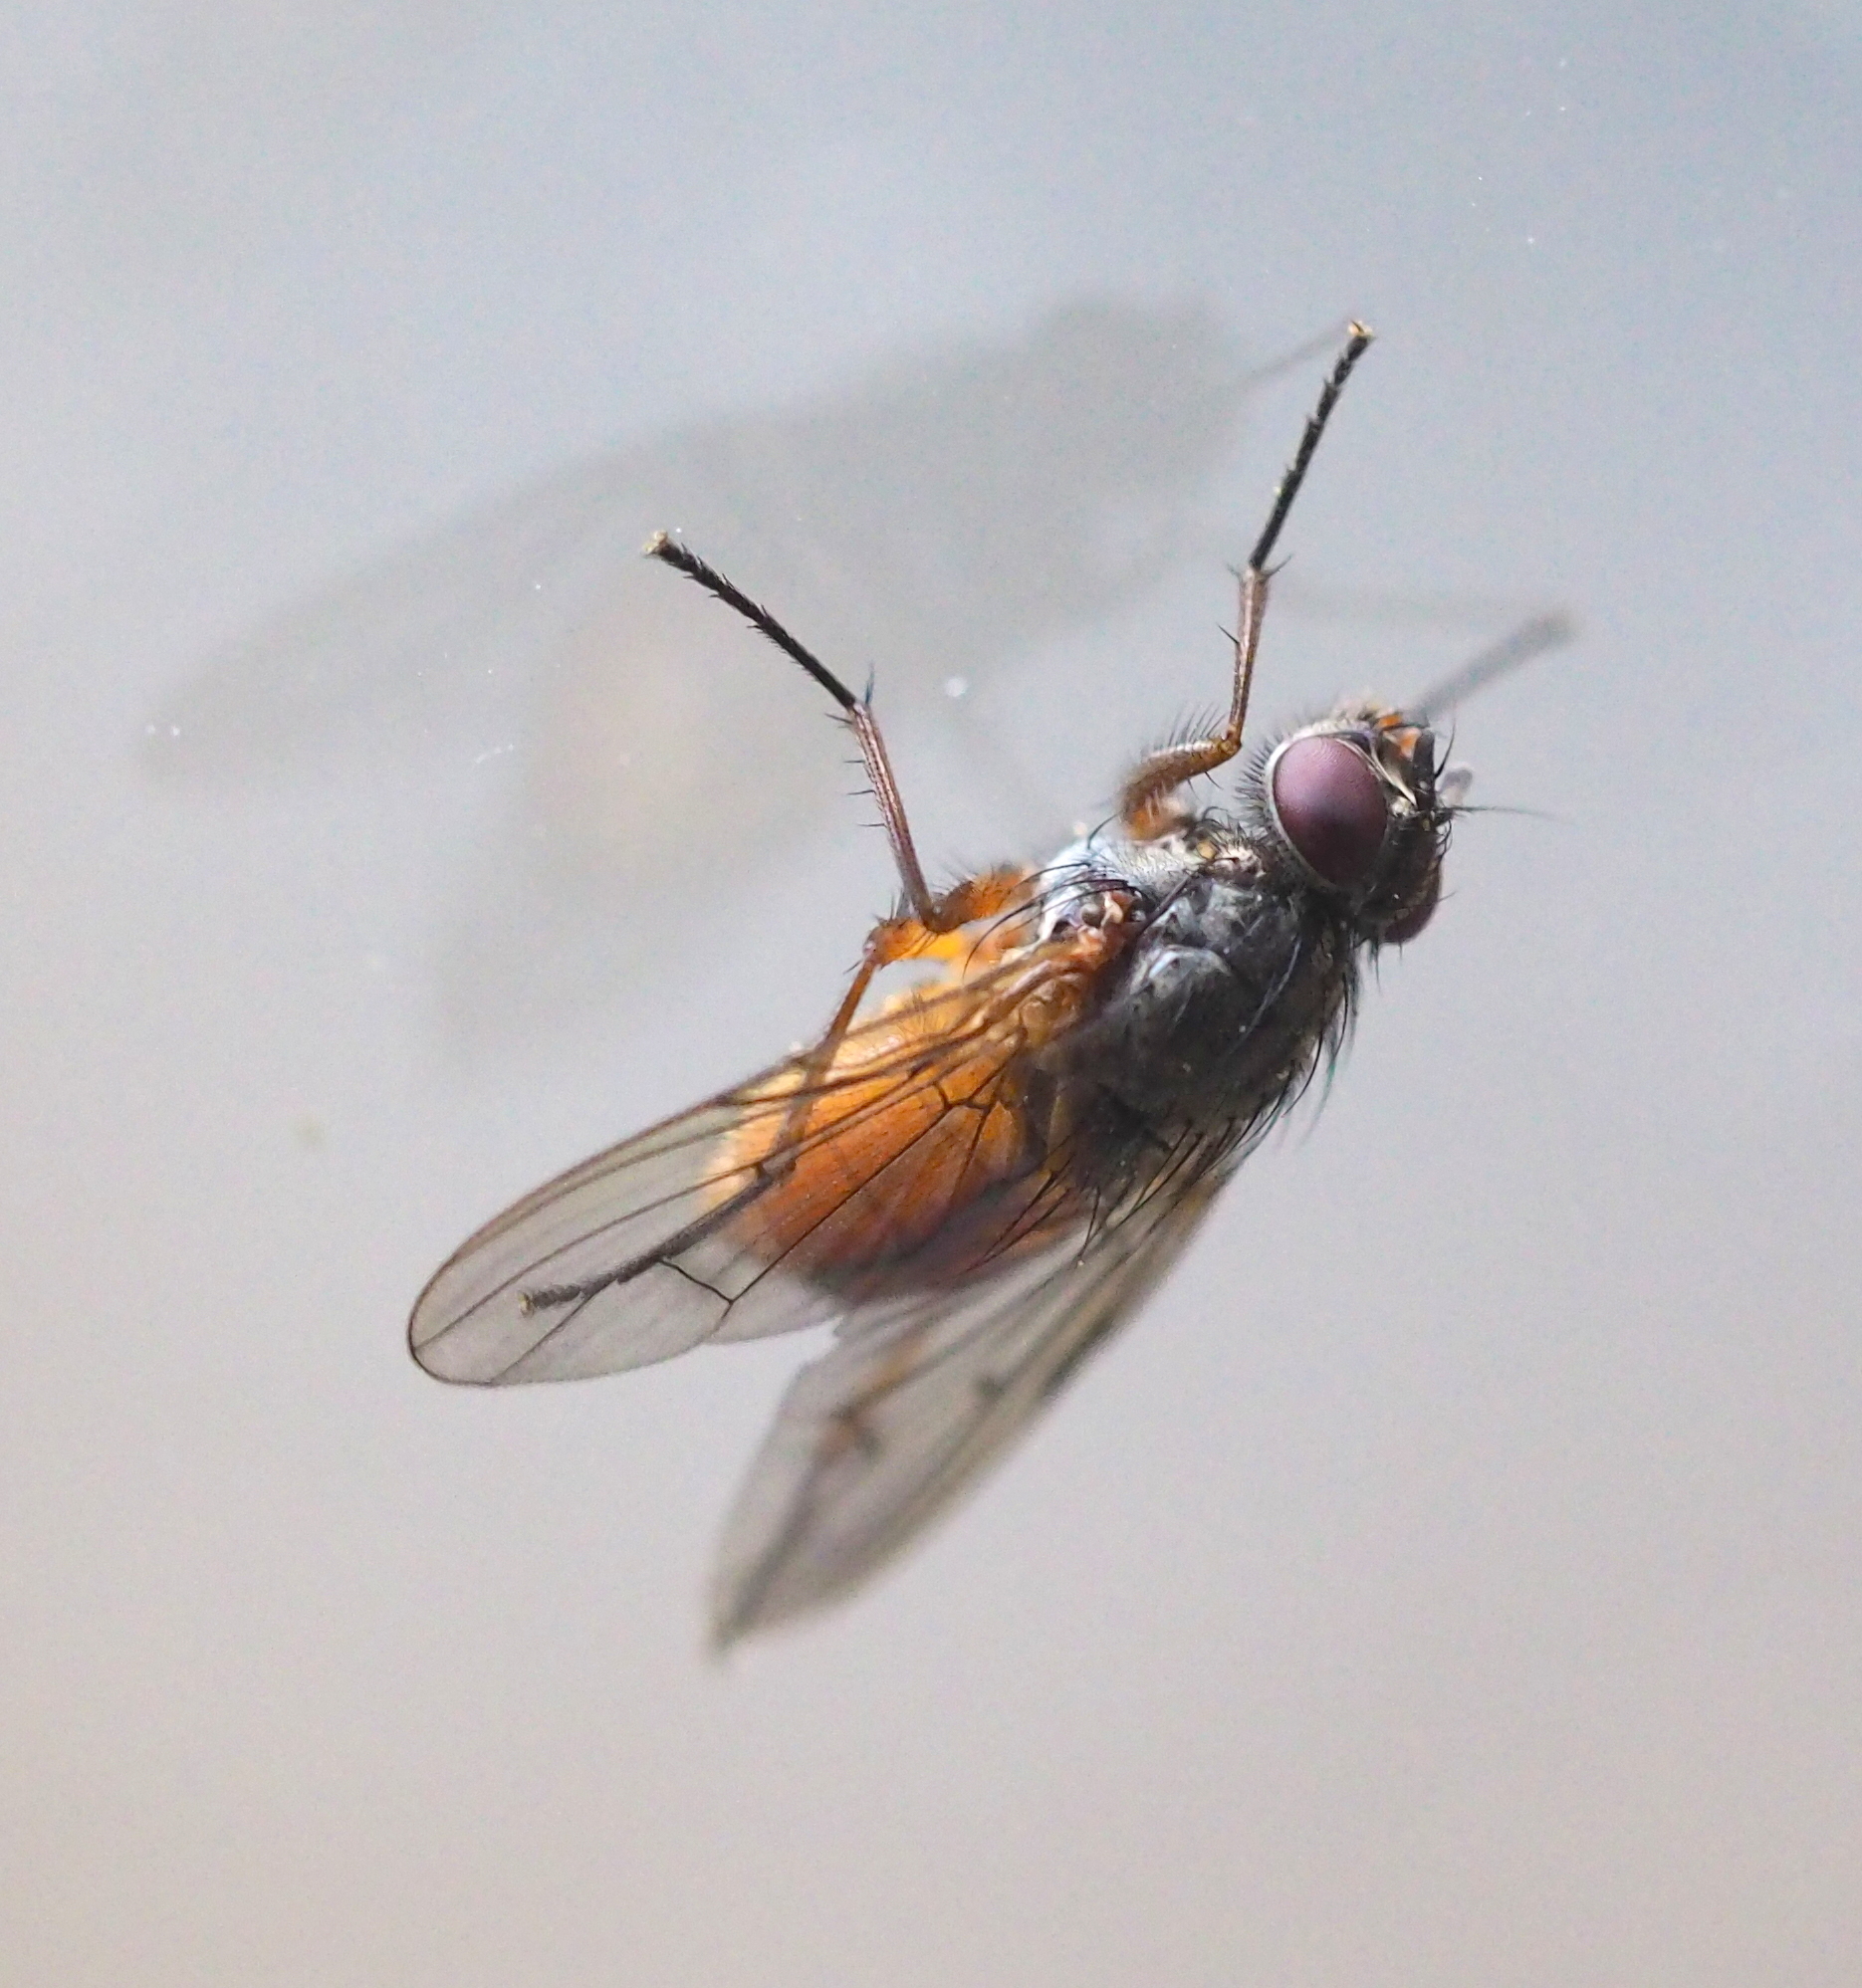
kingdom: Animalia
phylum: Arthropoda
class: Insecta
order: Diptera
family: Muscidae
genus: Phaonia
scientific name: Phaonia subventa
